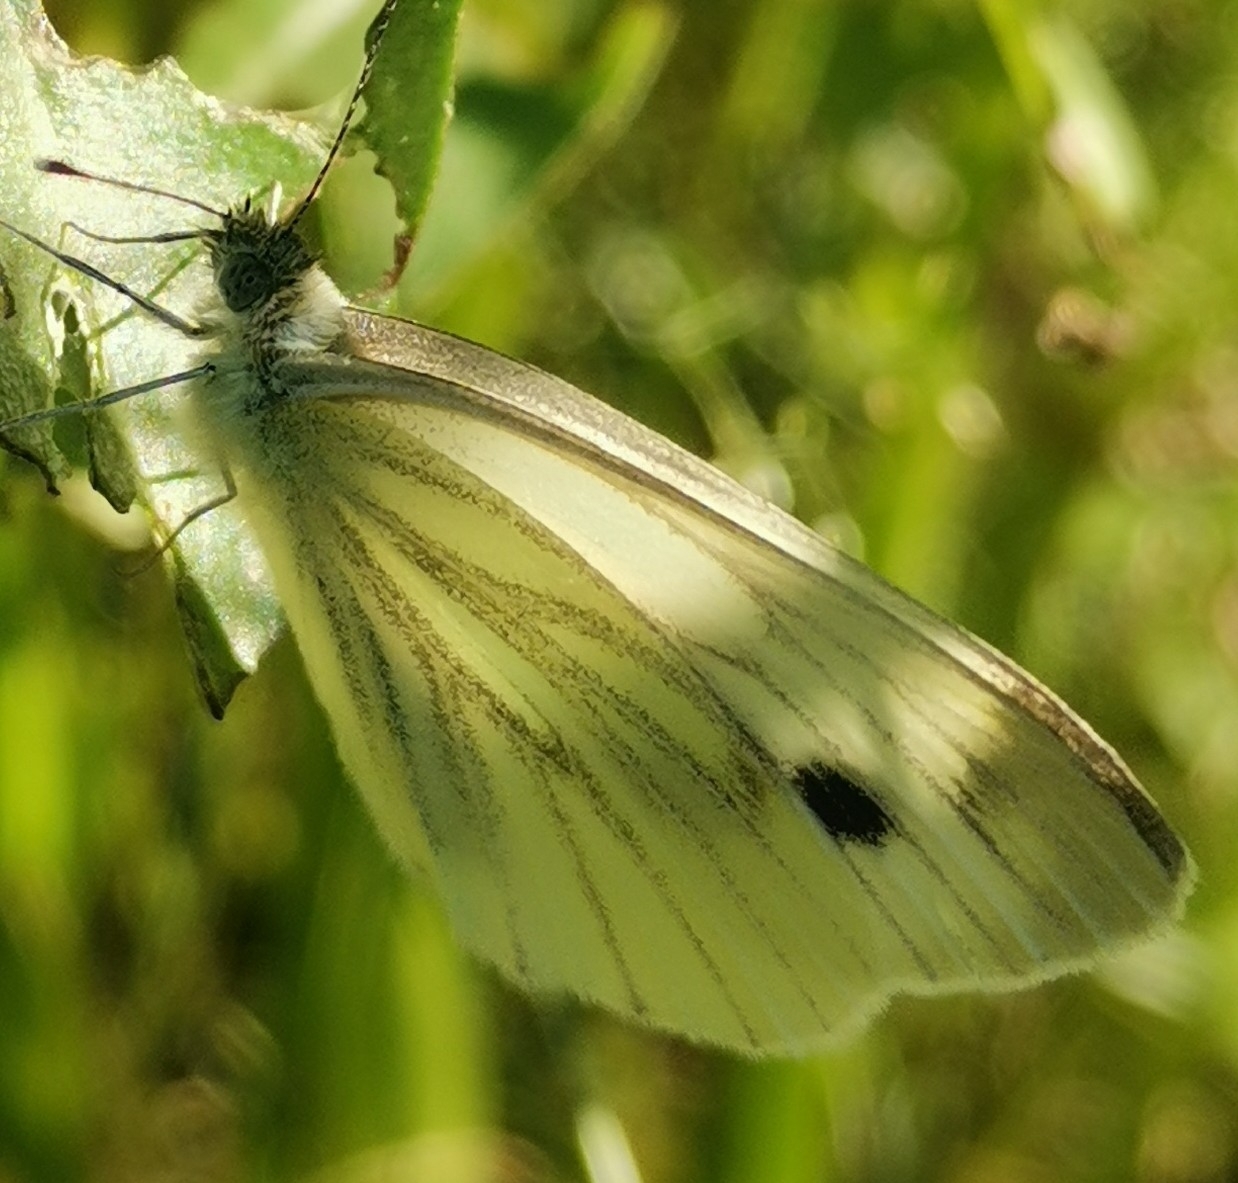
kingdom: Animalia
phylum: Arthropoda
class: Insecta
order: Lepidoptera
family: Pieridae
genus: Pieris
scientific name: Pieris napi
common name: Green-veined white
